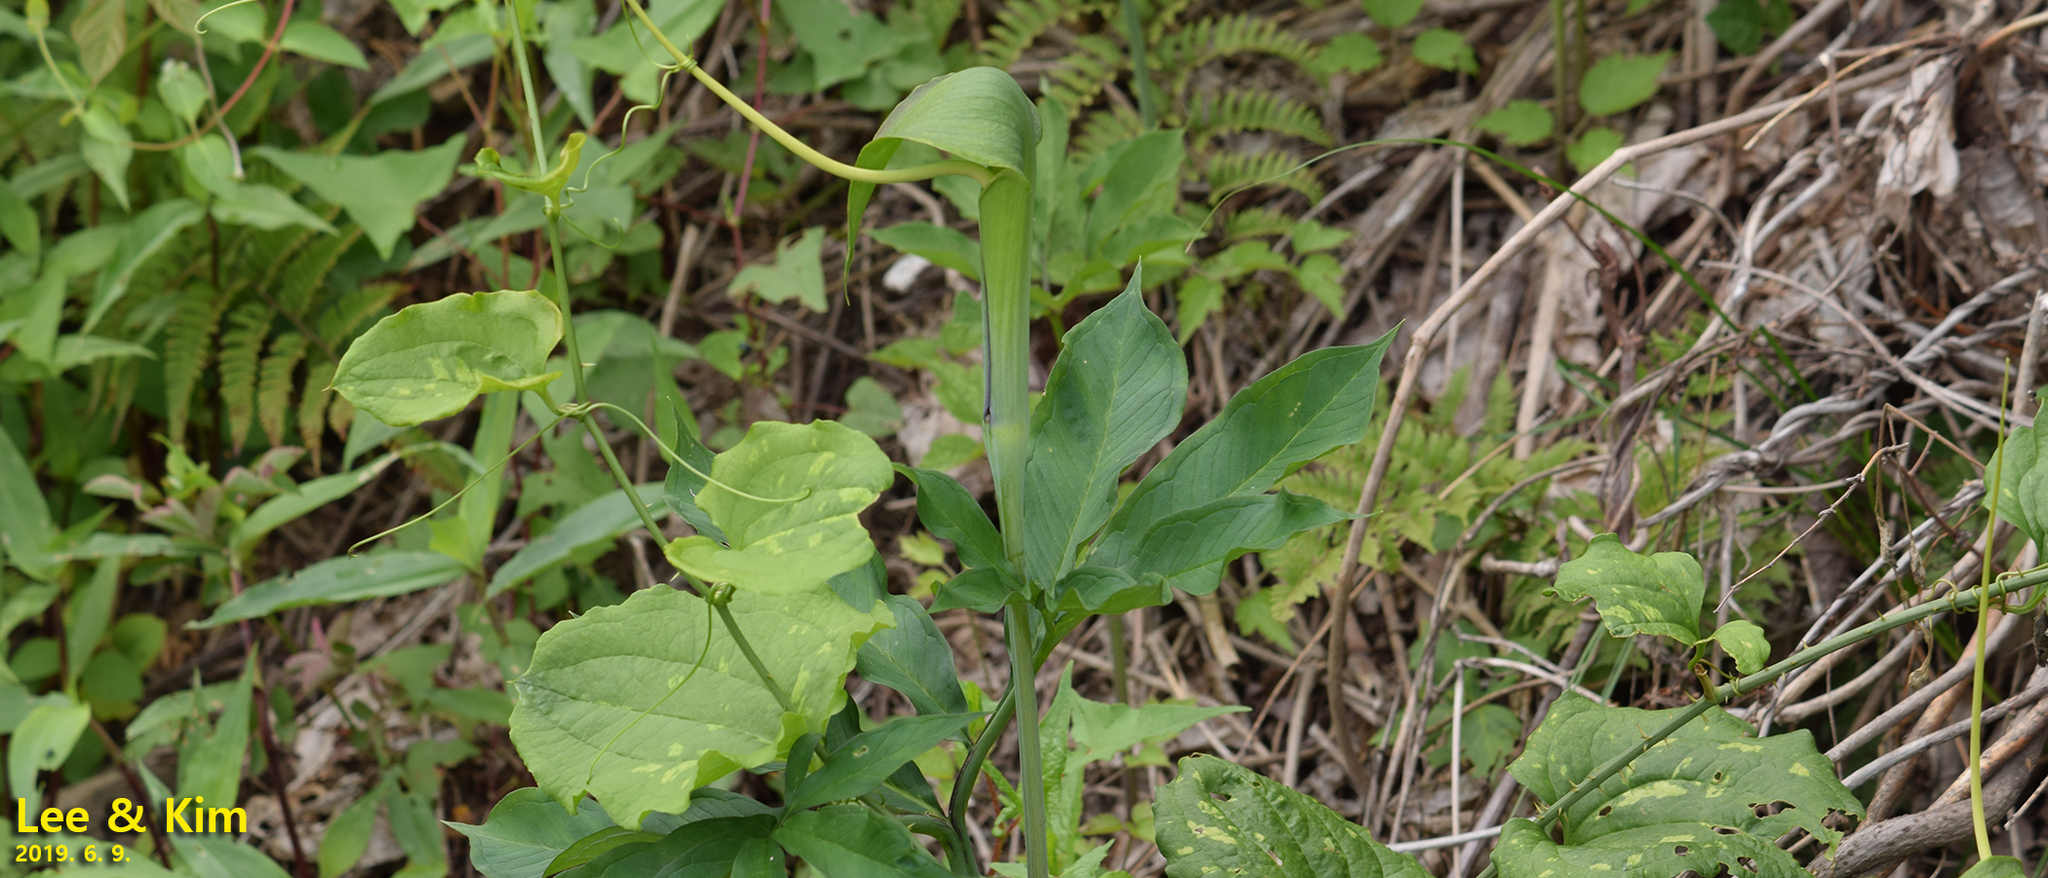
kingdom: Plantae
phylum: Tracheophyta
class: Liliopsida
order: Alismatales
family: Araceae
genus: Arisaema
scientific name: Arisaema heterophyllum
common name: Dancing crane cobra lily
